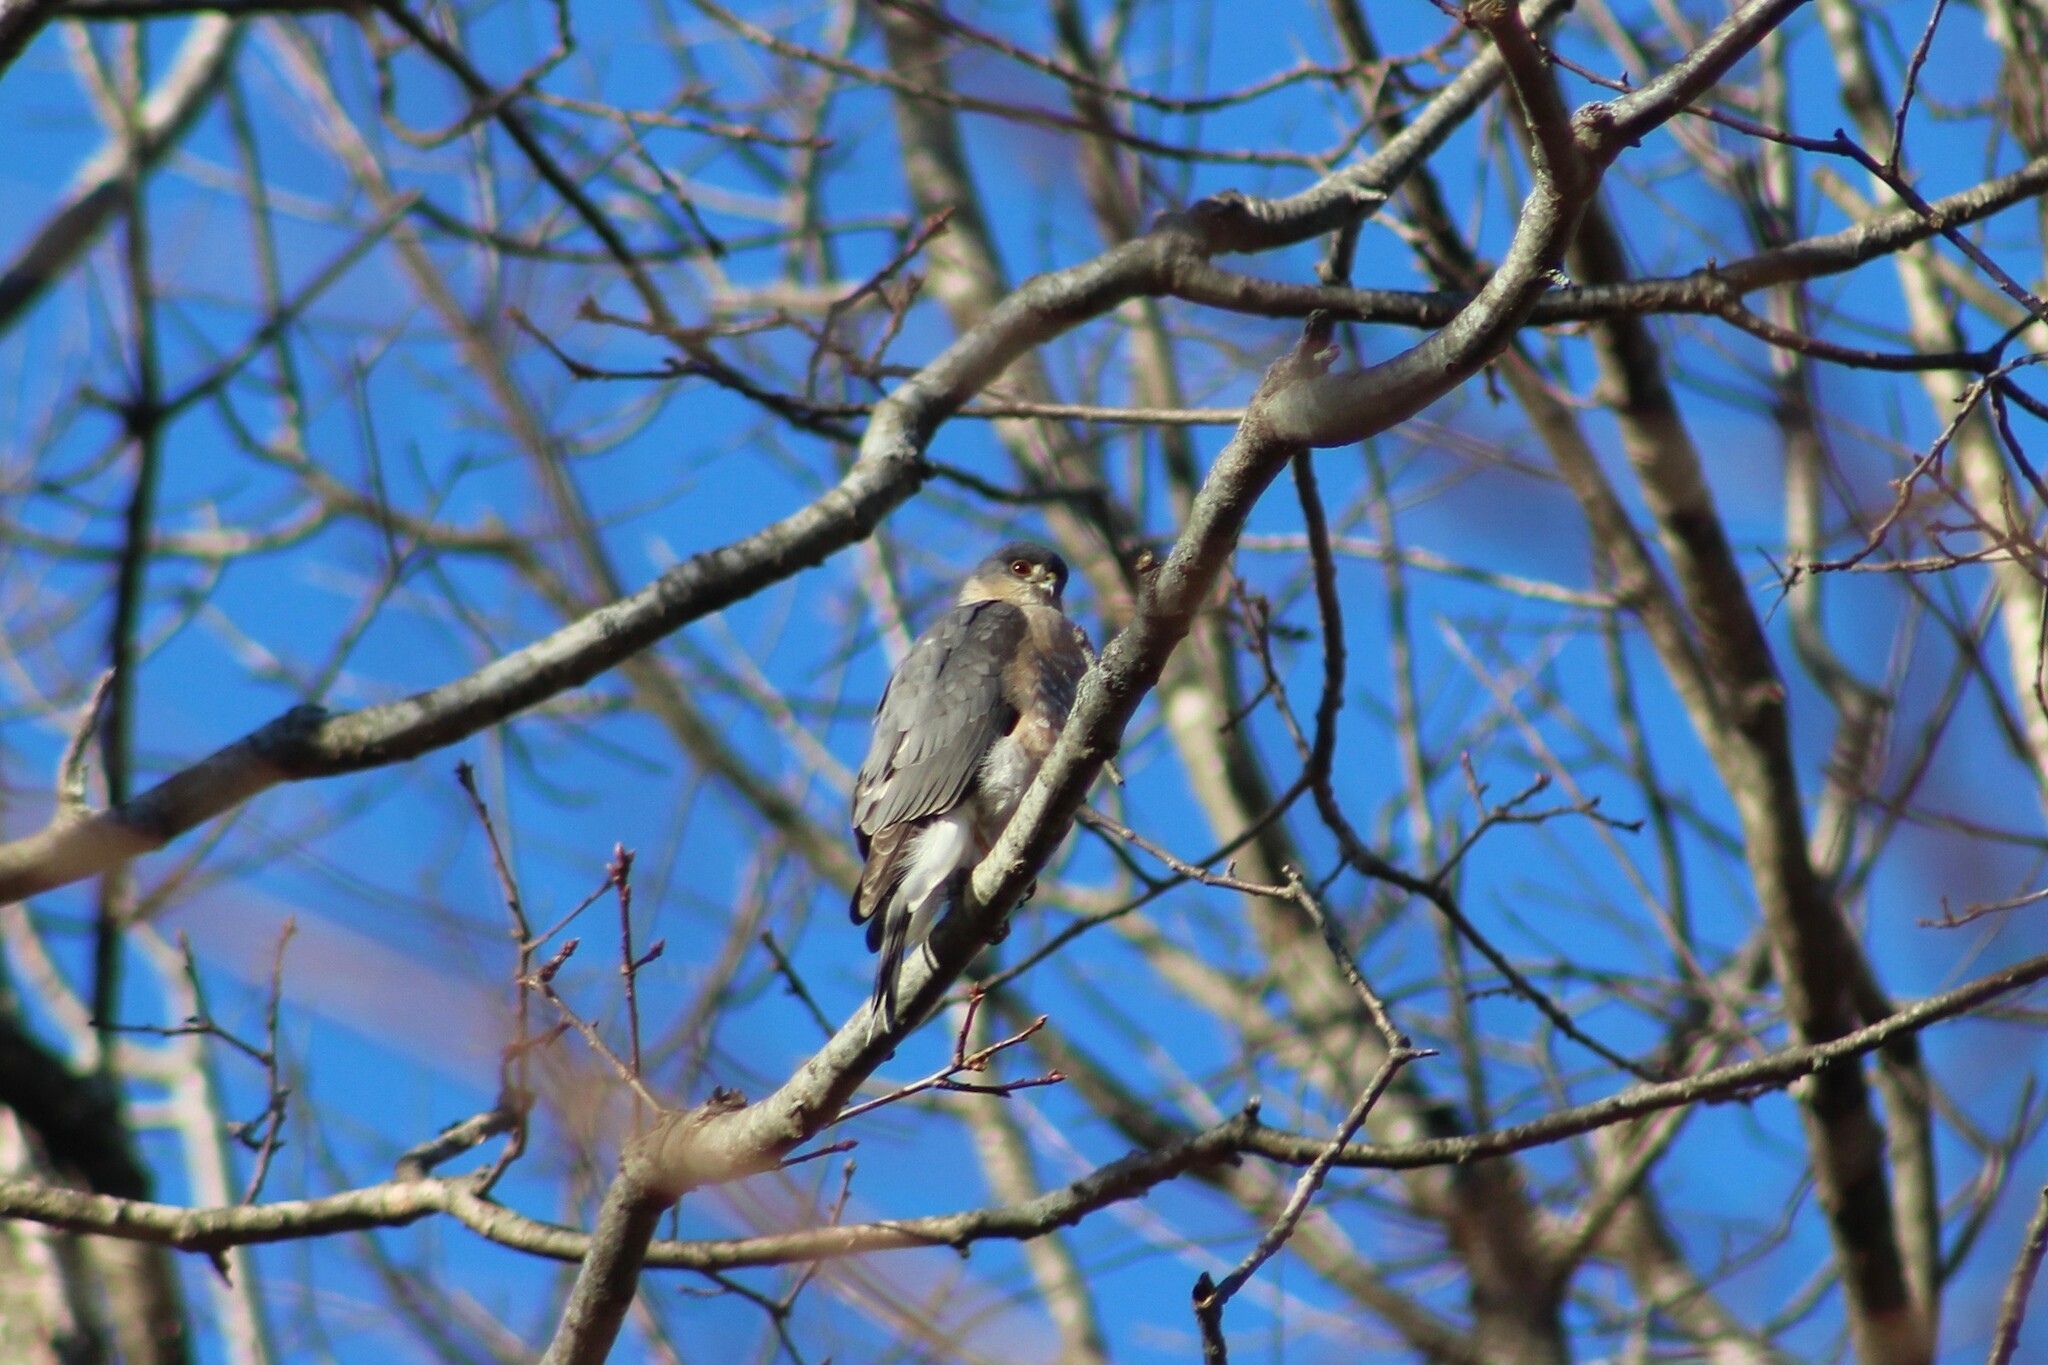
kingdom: Animalia
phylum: Chordata
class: Aves
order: Accipitriformes
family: Accipitridae
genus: Accipiter
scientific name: Accipiter striatus
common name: Sharp-shinned hawk
